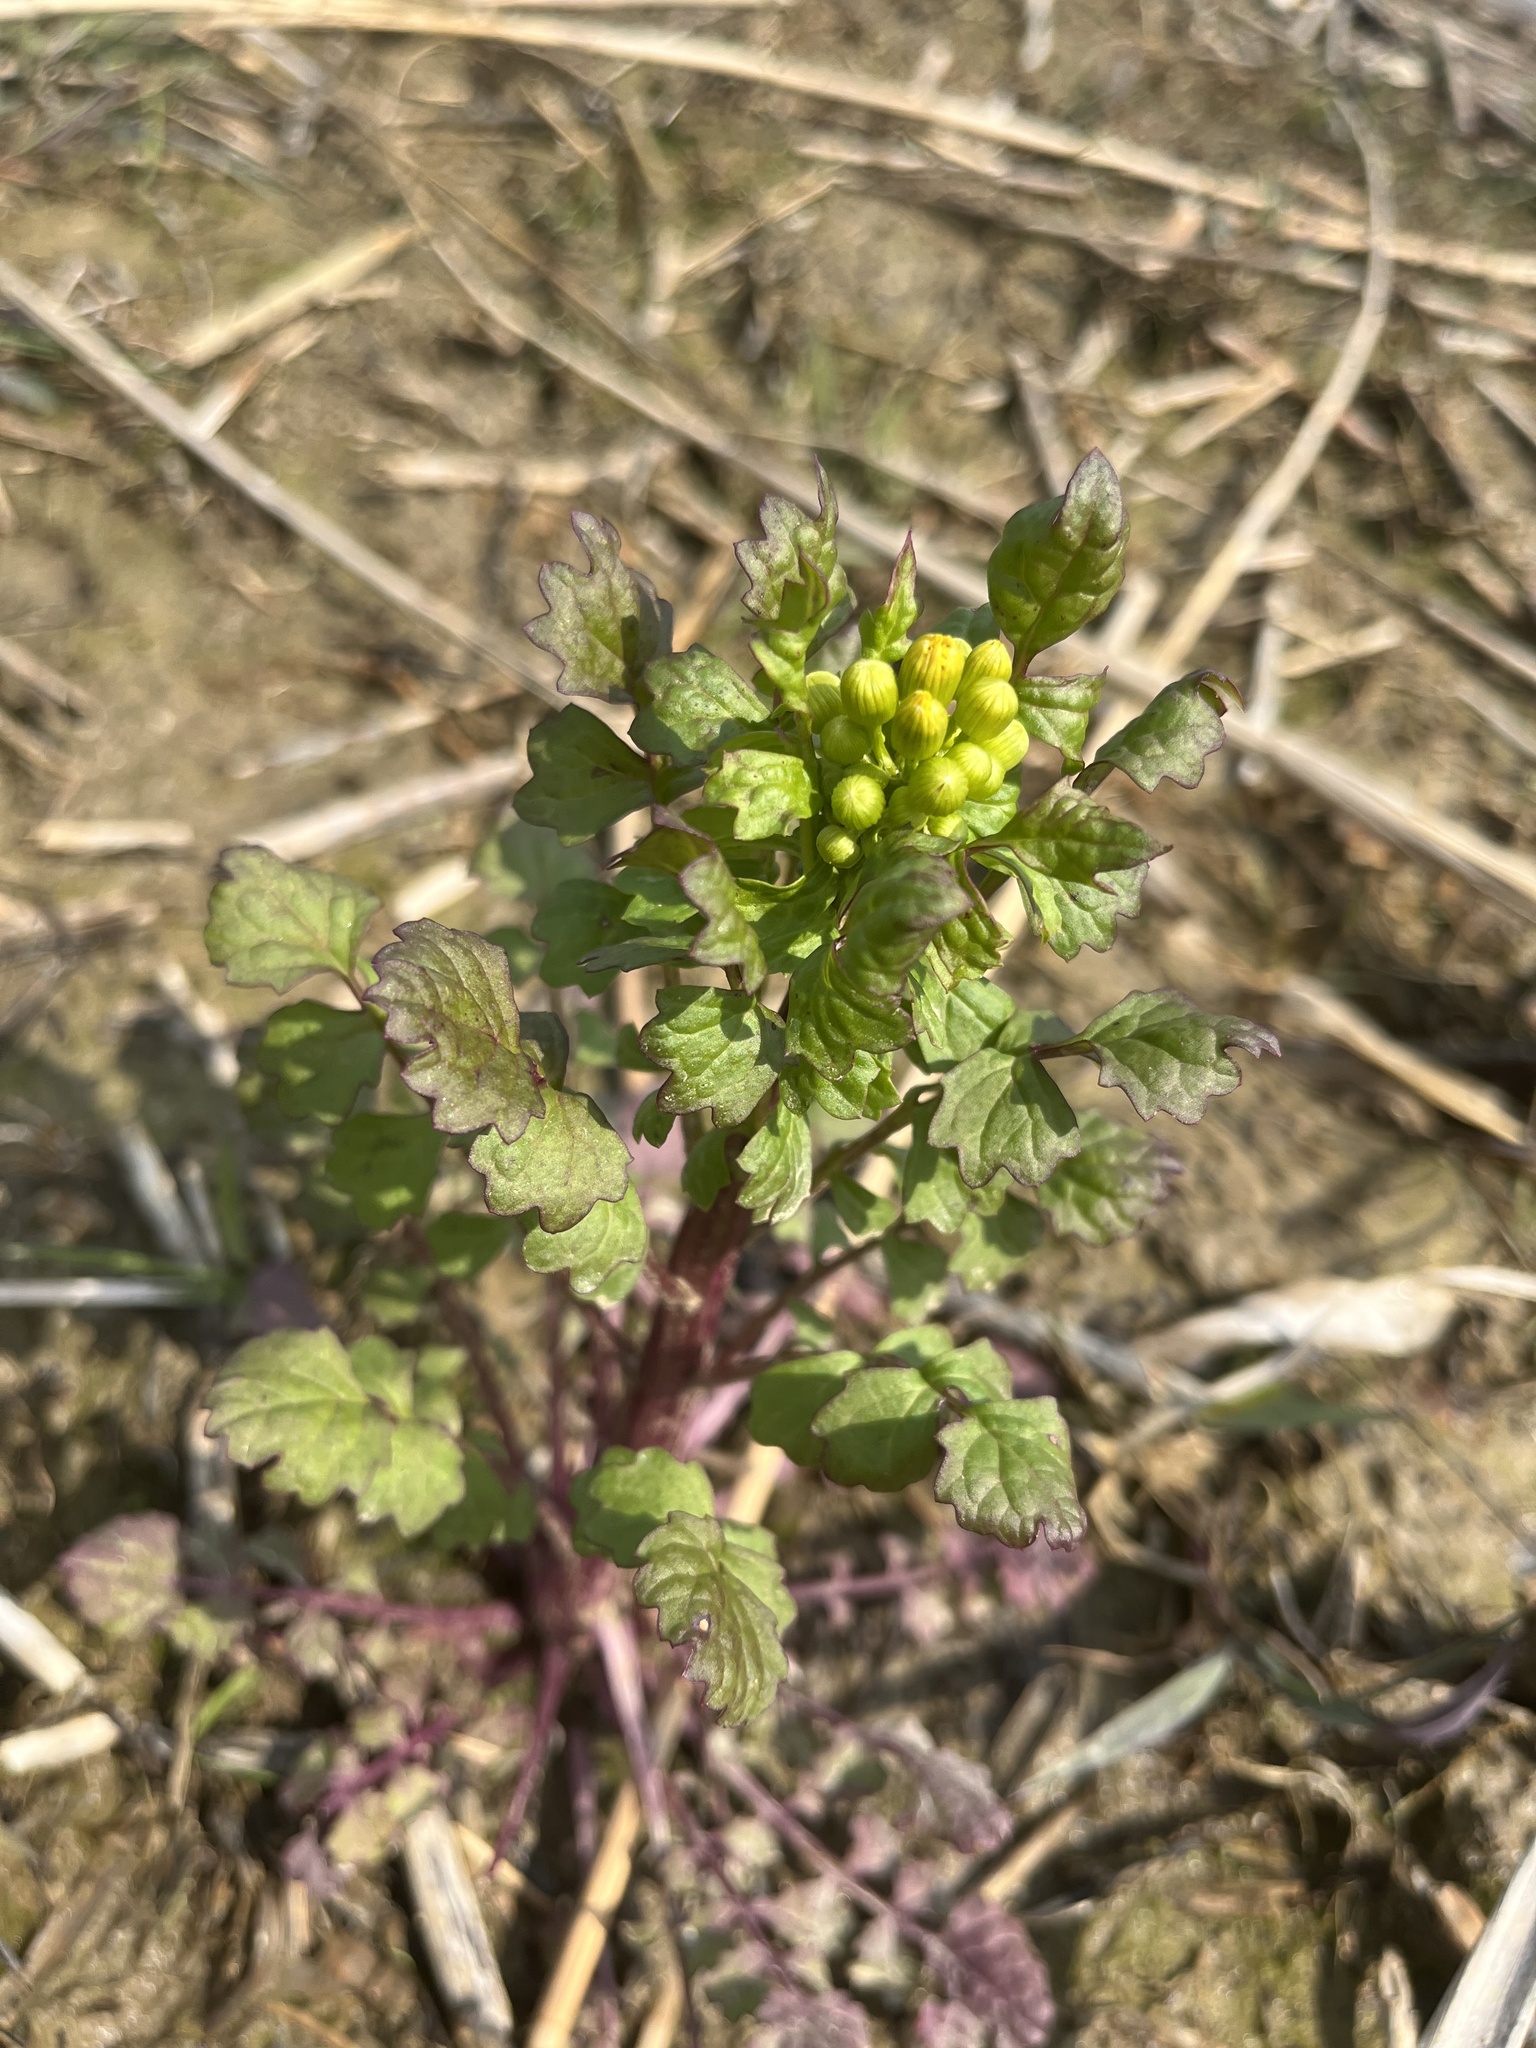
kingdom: Plantae
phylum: Tracheophyta
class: Magnoliopsida
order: Asterales
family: Asteraceae
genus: Packera
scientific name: Packera glabella
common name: Butterweed
